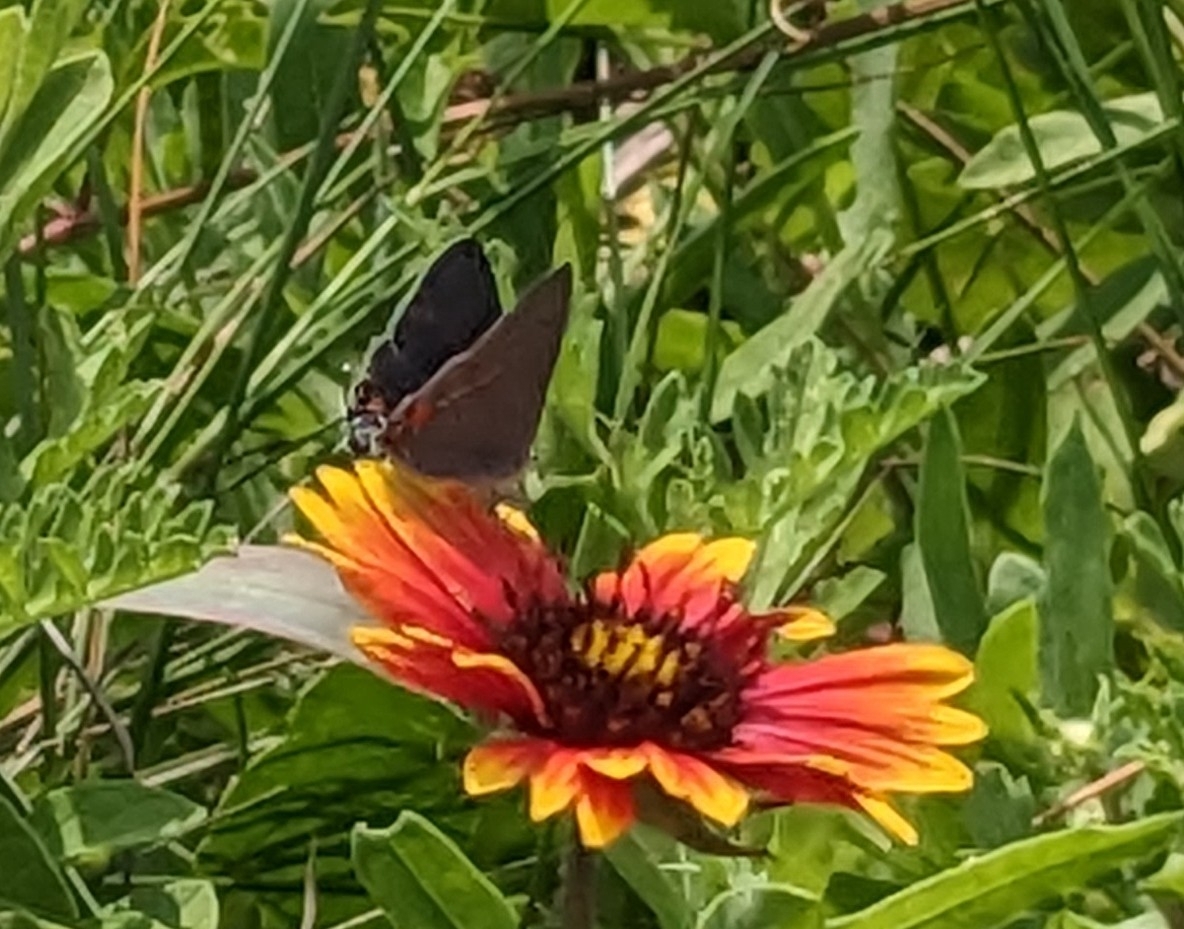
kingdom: Animalia
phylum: Arthropoda
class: Insecta
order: Lepidoptera
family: Lycaenidae
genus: Strymon
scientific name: Strymon melinus
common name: Gray hairstreak
